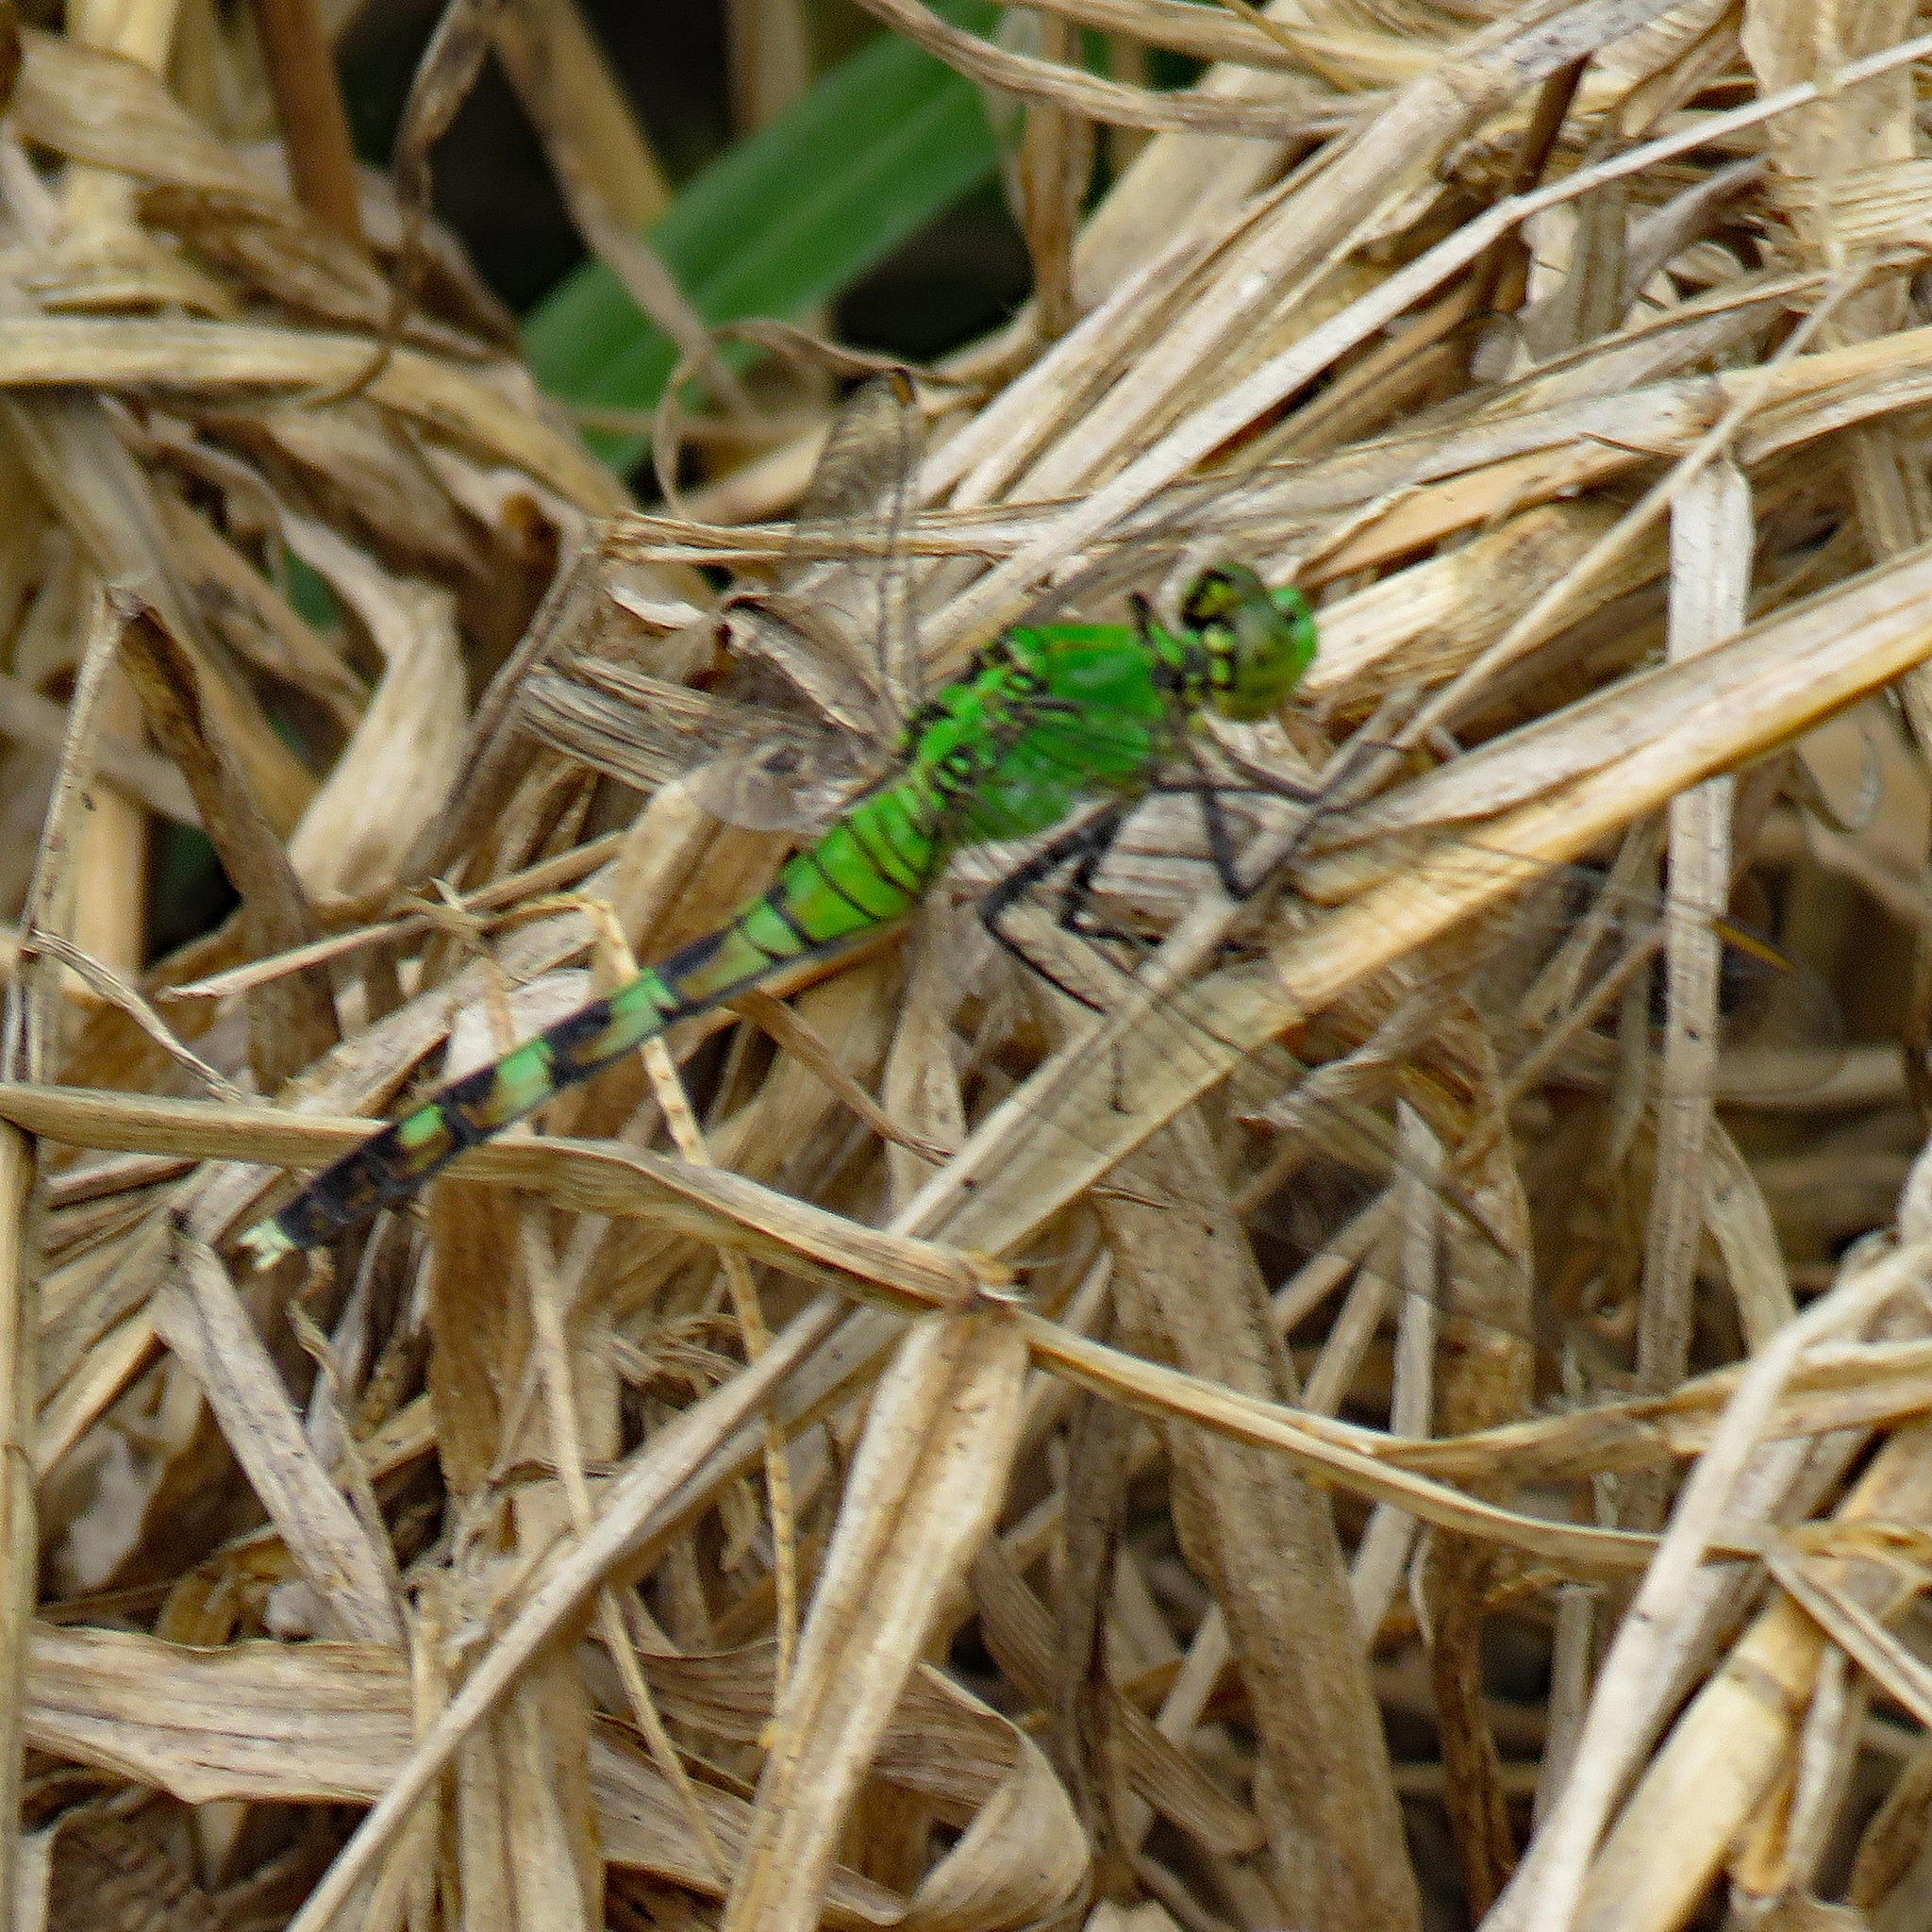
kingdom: Animalia
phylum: Arthropoda
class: Insecta
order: Odonata
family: Libellulidae
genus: Erythemis
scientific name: Erythemis simplicicollis
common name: Eastern pondhawk
